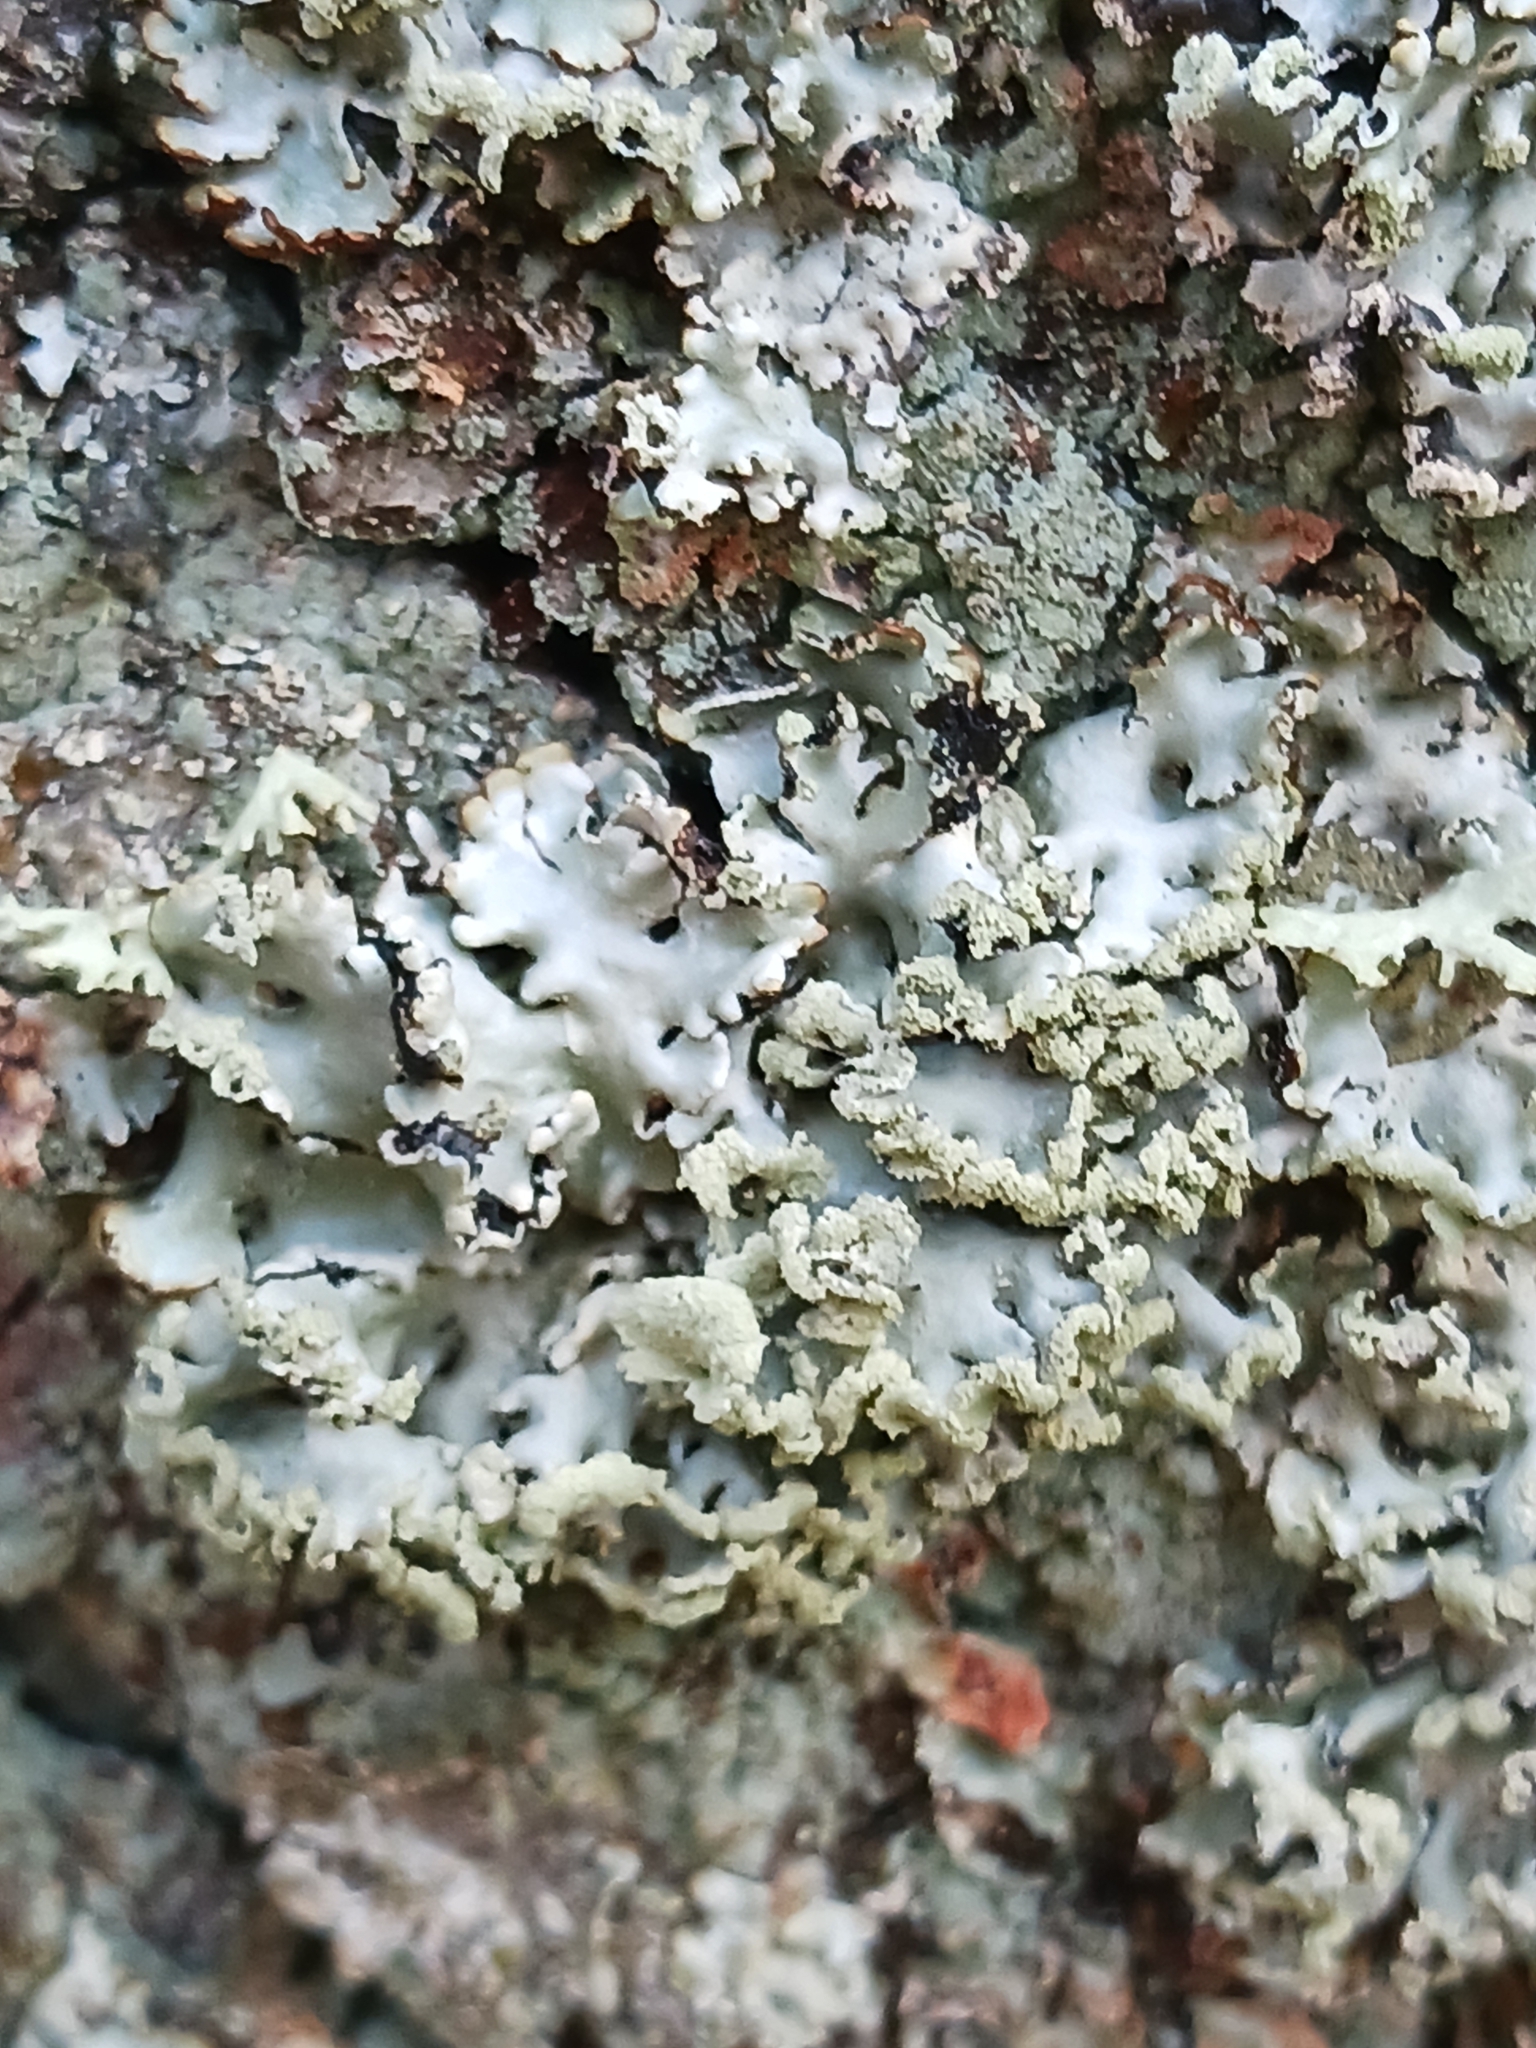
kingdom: Fungi
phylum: Ascomycota
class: Lecanoromycetes
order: Lecanorales
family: Parmeliaceae
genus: Hypogymnia
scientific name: Hypogymnia physodes
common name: Dark crottle
